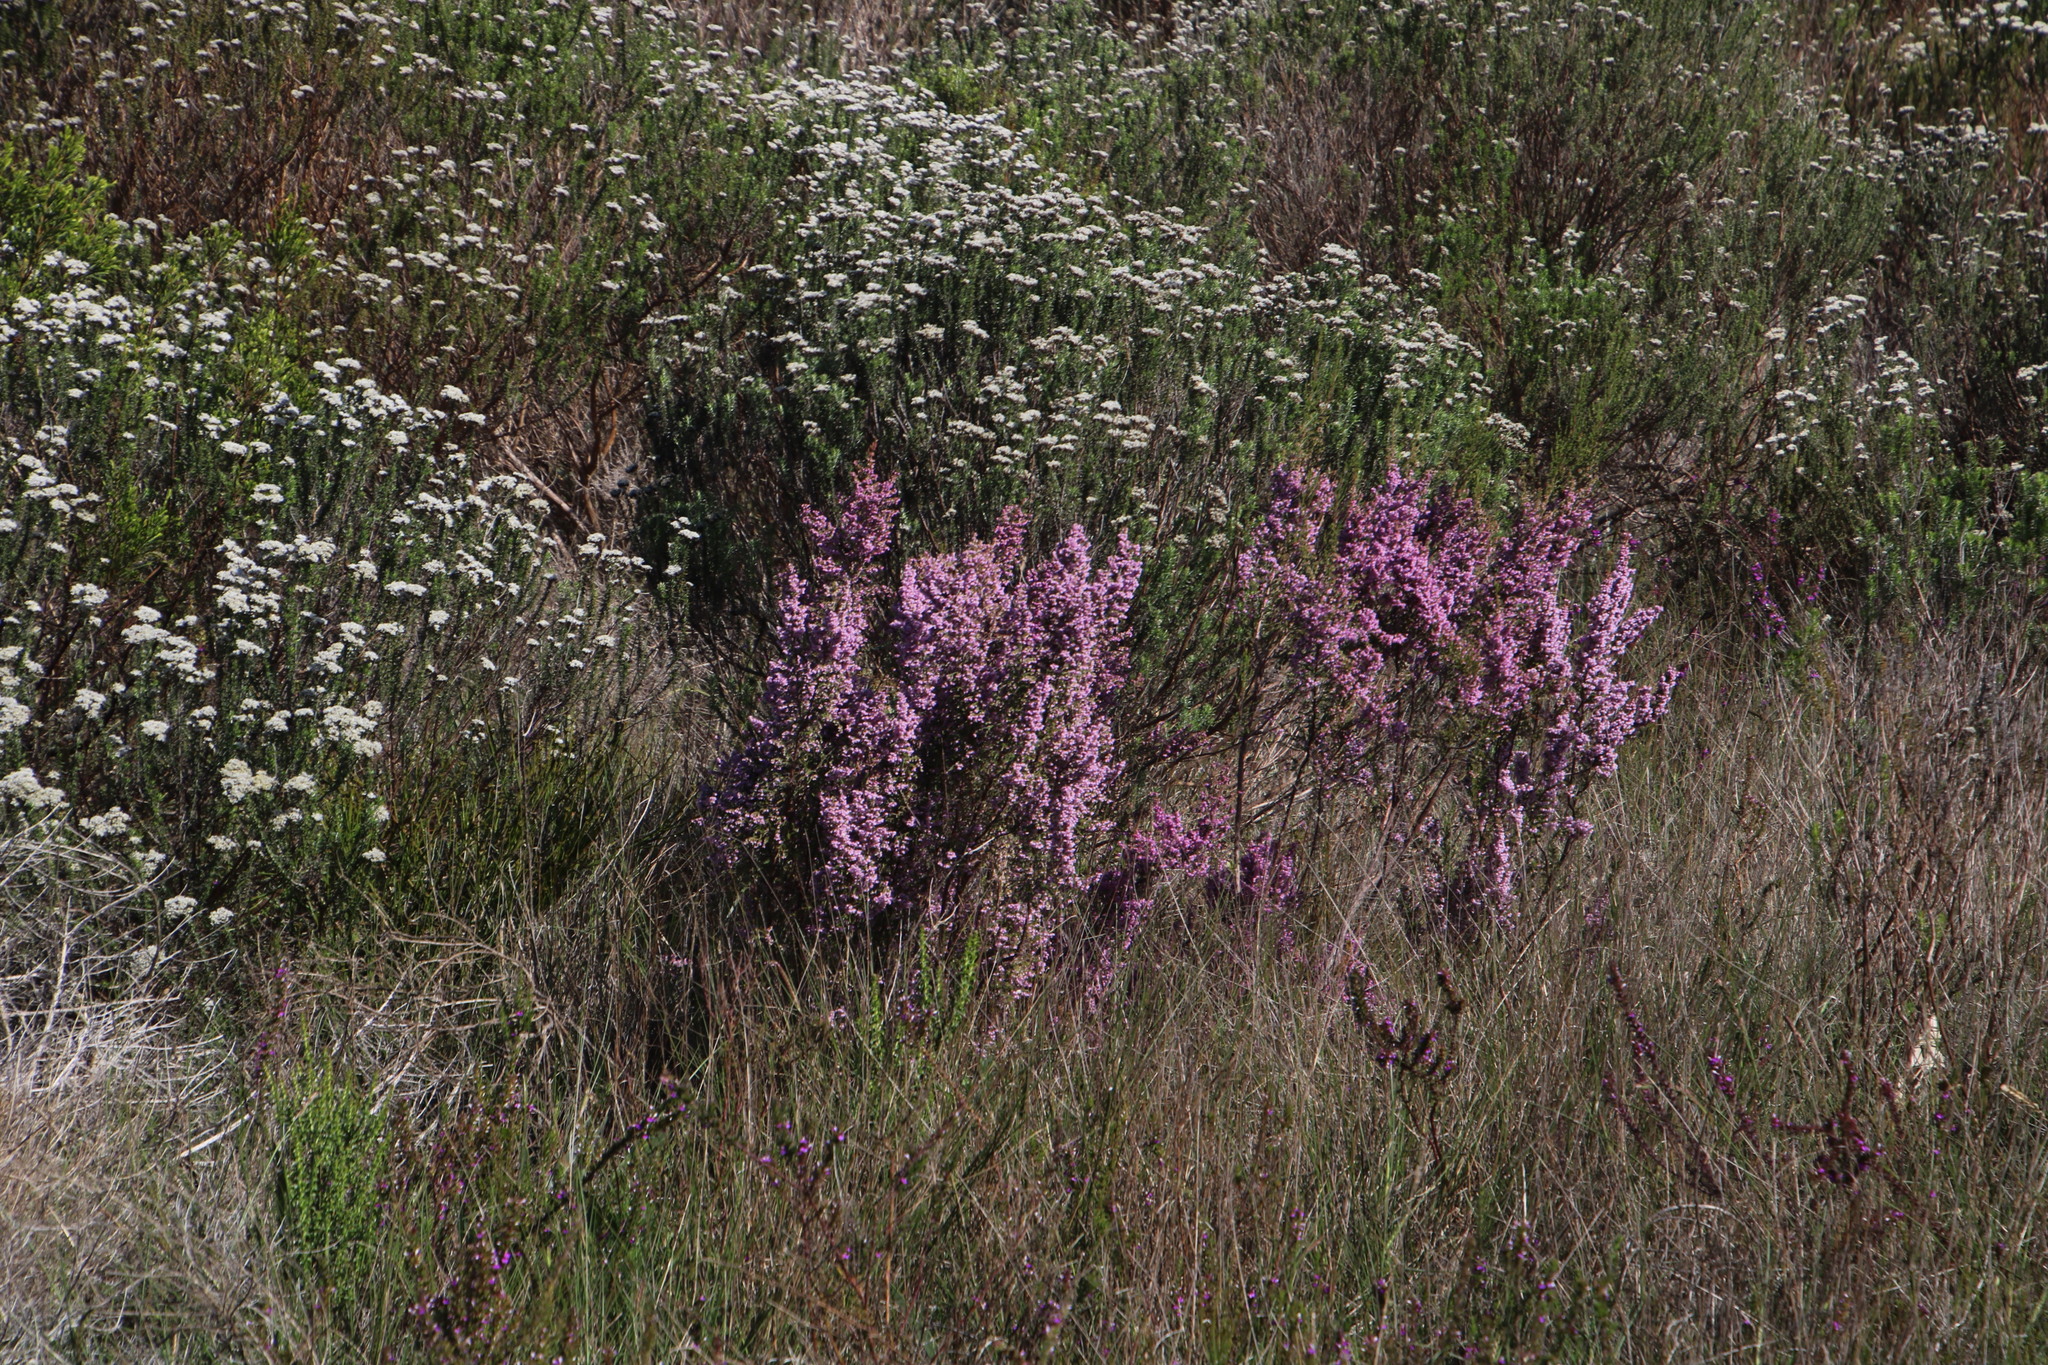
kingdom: Plantae
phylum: Tracheophyta
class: Magnoliopsida
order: Ericales
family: Ericaceae
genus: Erica
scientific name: Erica mauritanica
